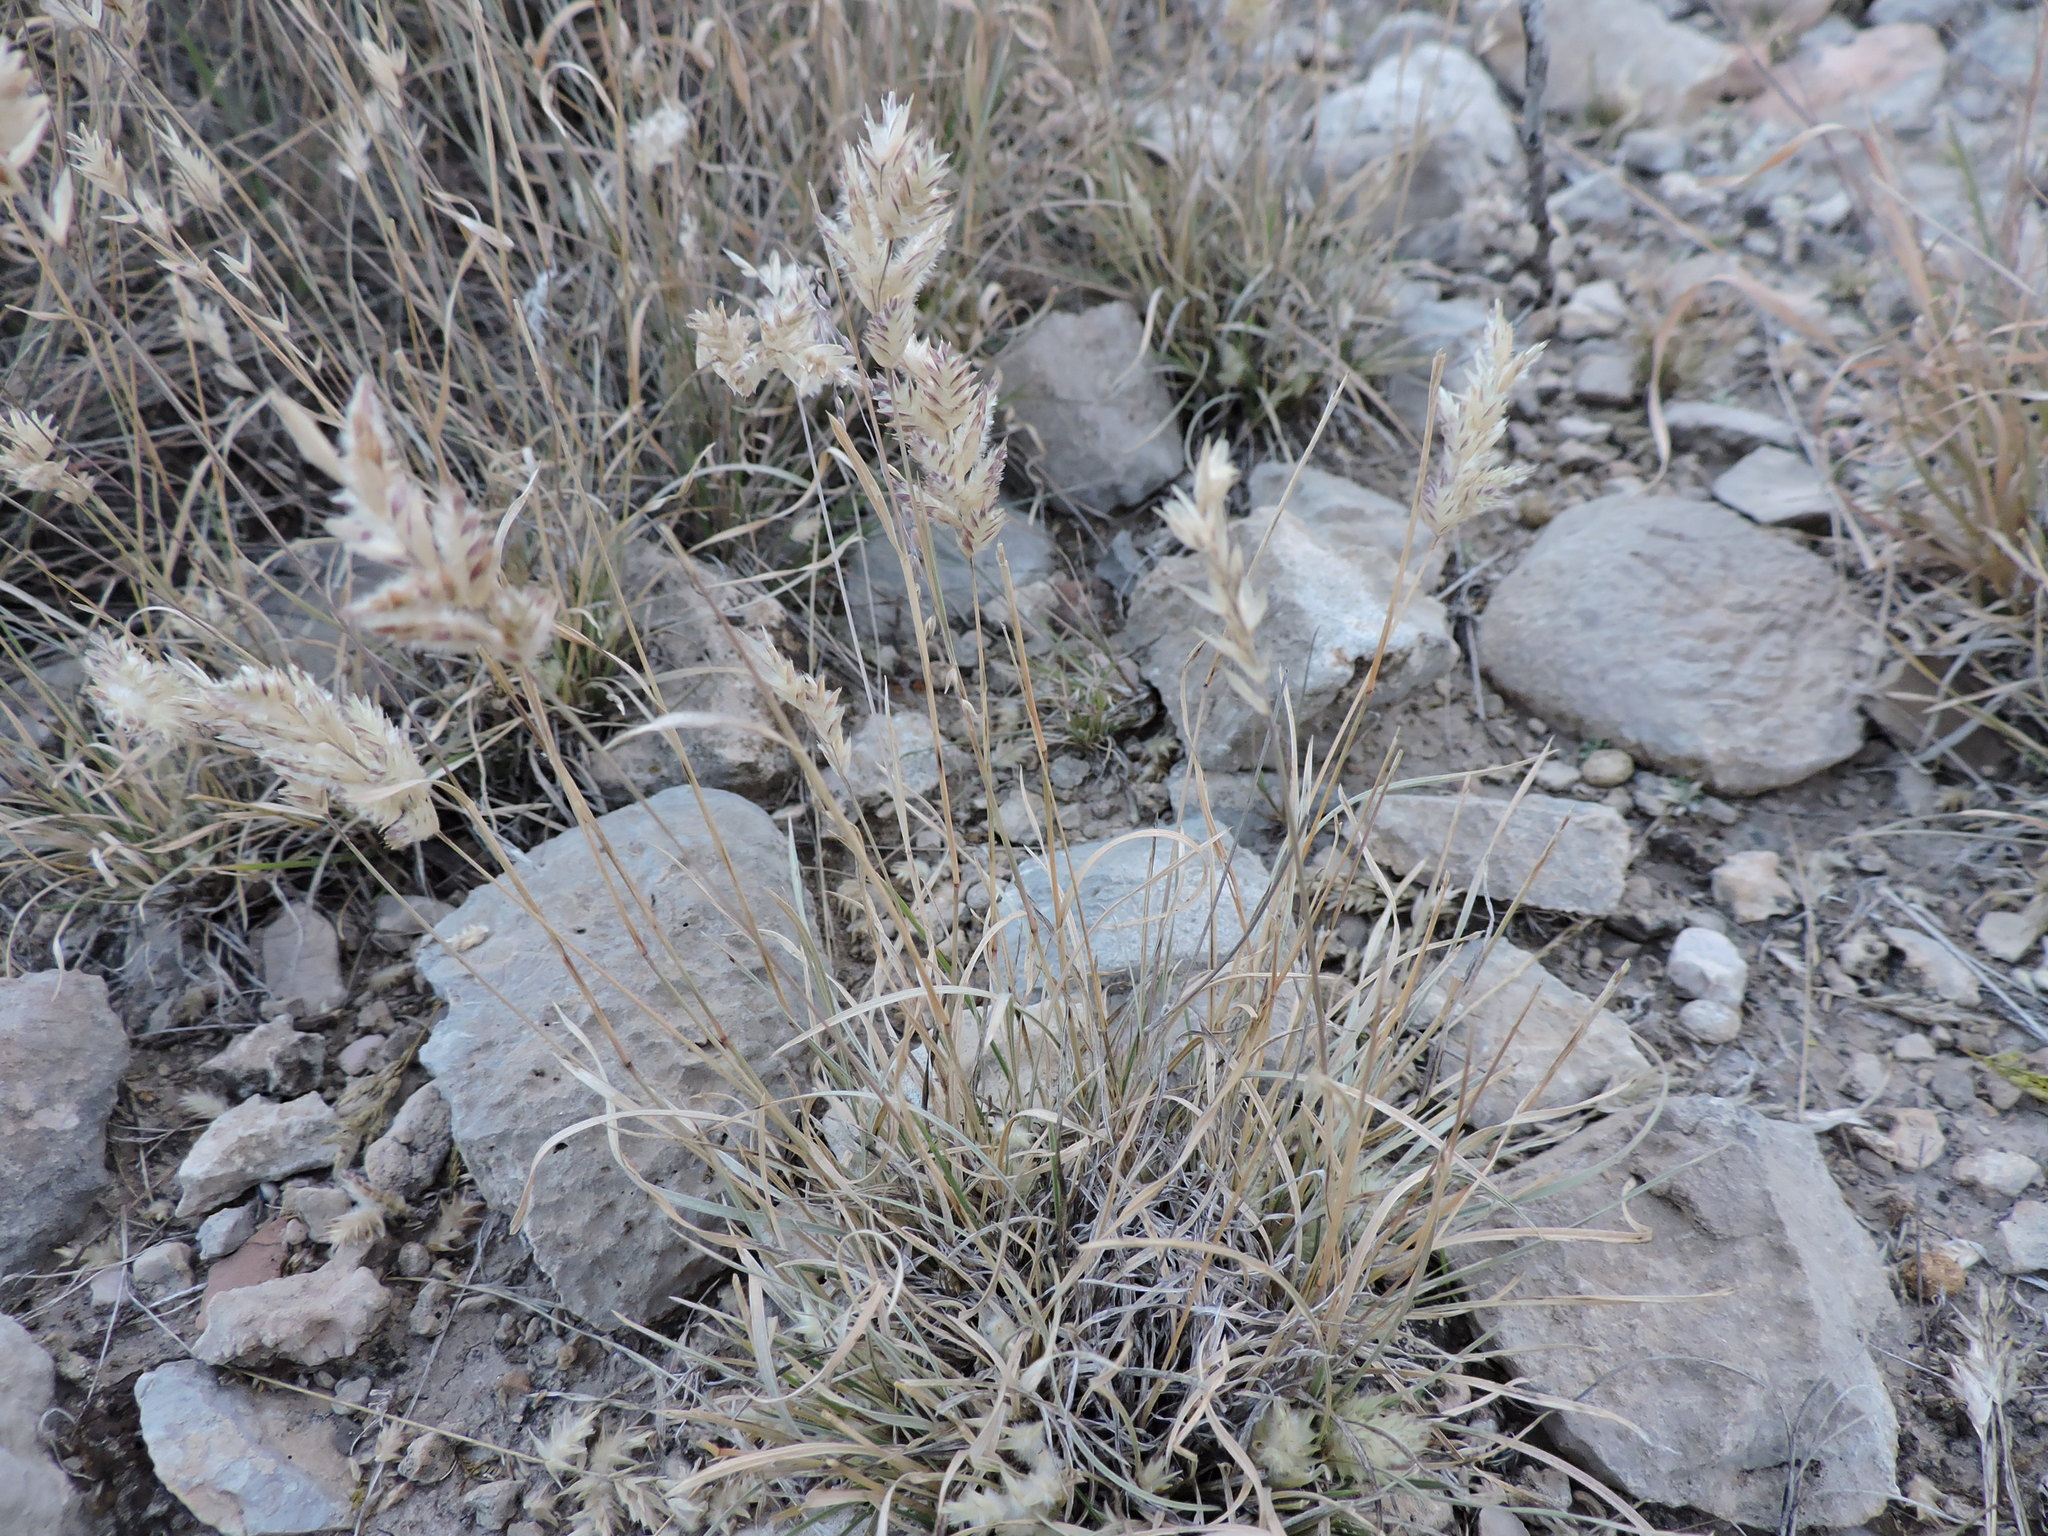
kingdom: Plantae
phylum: Tracheophyta
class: Liliopsida
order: Poales
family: Poaceae
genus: Erioneuron
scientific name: Erioneuron pilosum
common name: Hairy woolly grass
